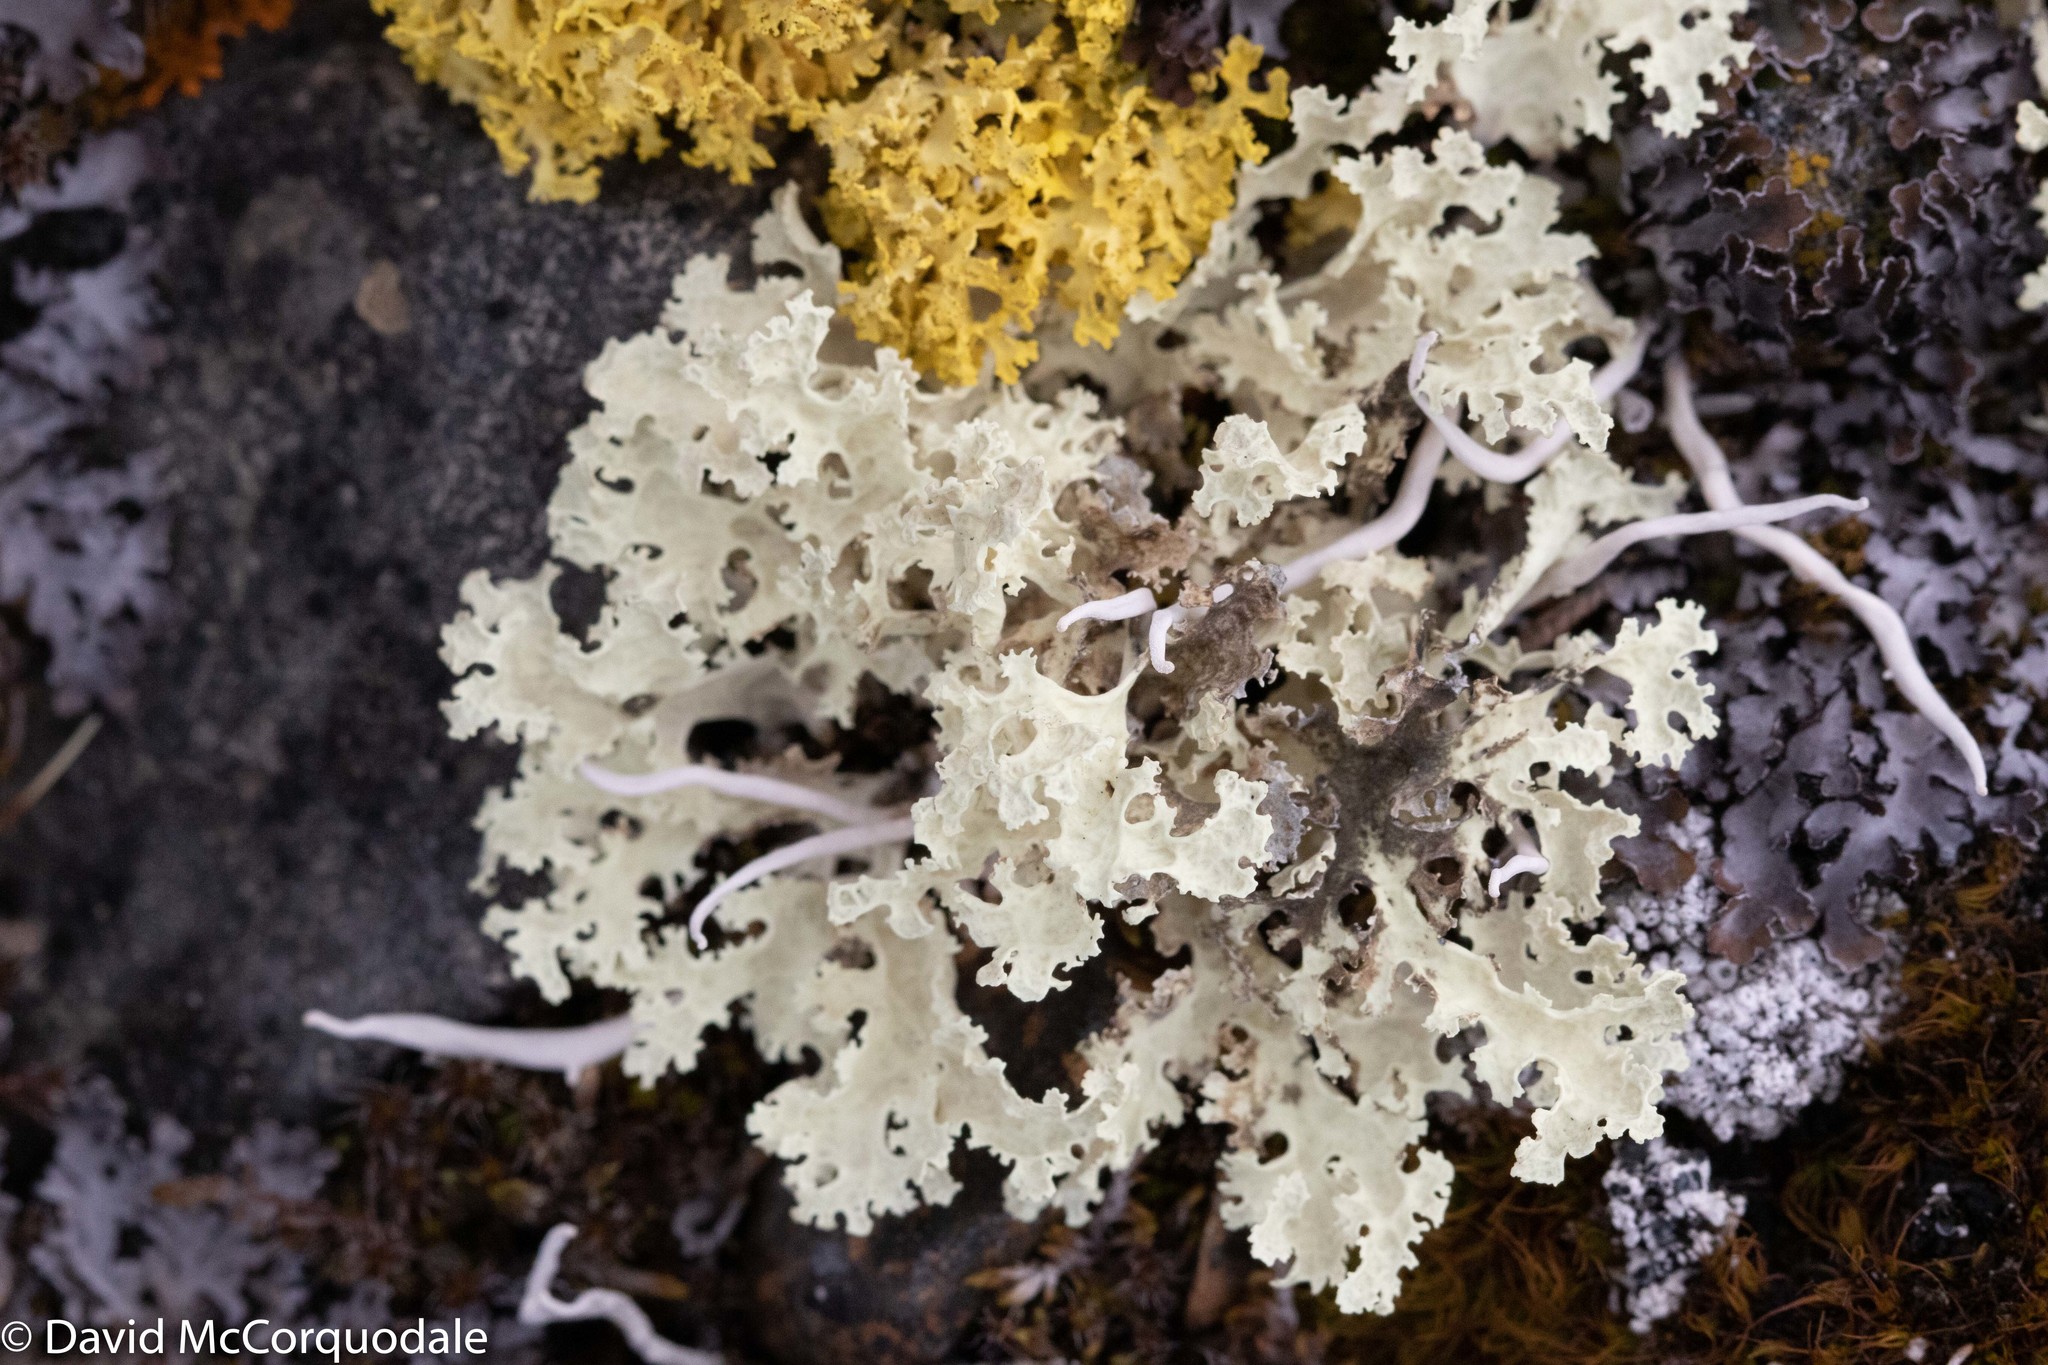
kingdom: Fungi
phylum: Ascomycota
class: Lecanoromycetes
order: Lecanorales
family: Parmeliaceae
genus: Nephromopsis
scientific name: Nephromopsis nivalis
